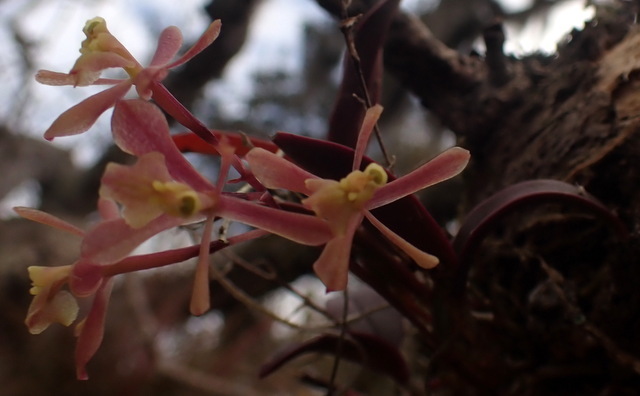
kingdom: Plantae
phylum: Tracheophyta
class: Liliopsida
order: Asparagales
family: Orchidaceae
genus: Epidendrum
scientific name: Epidendrum conopseum
